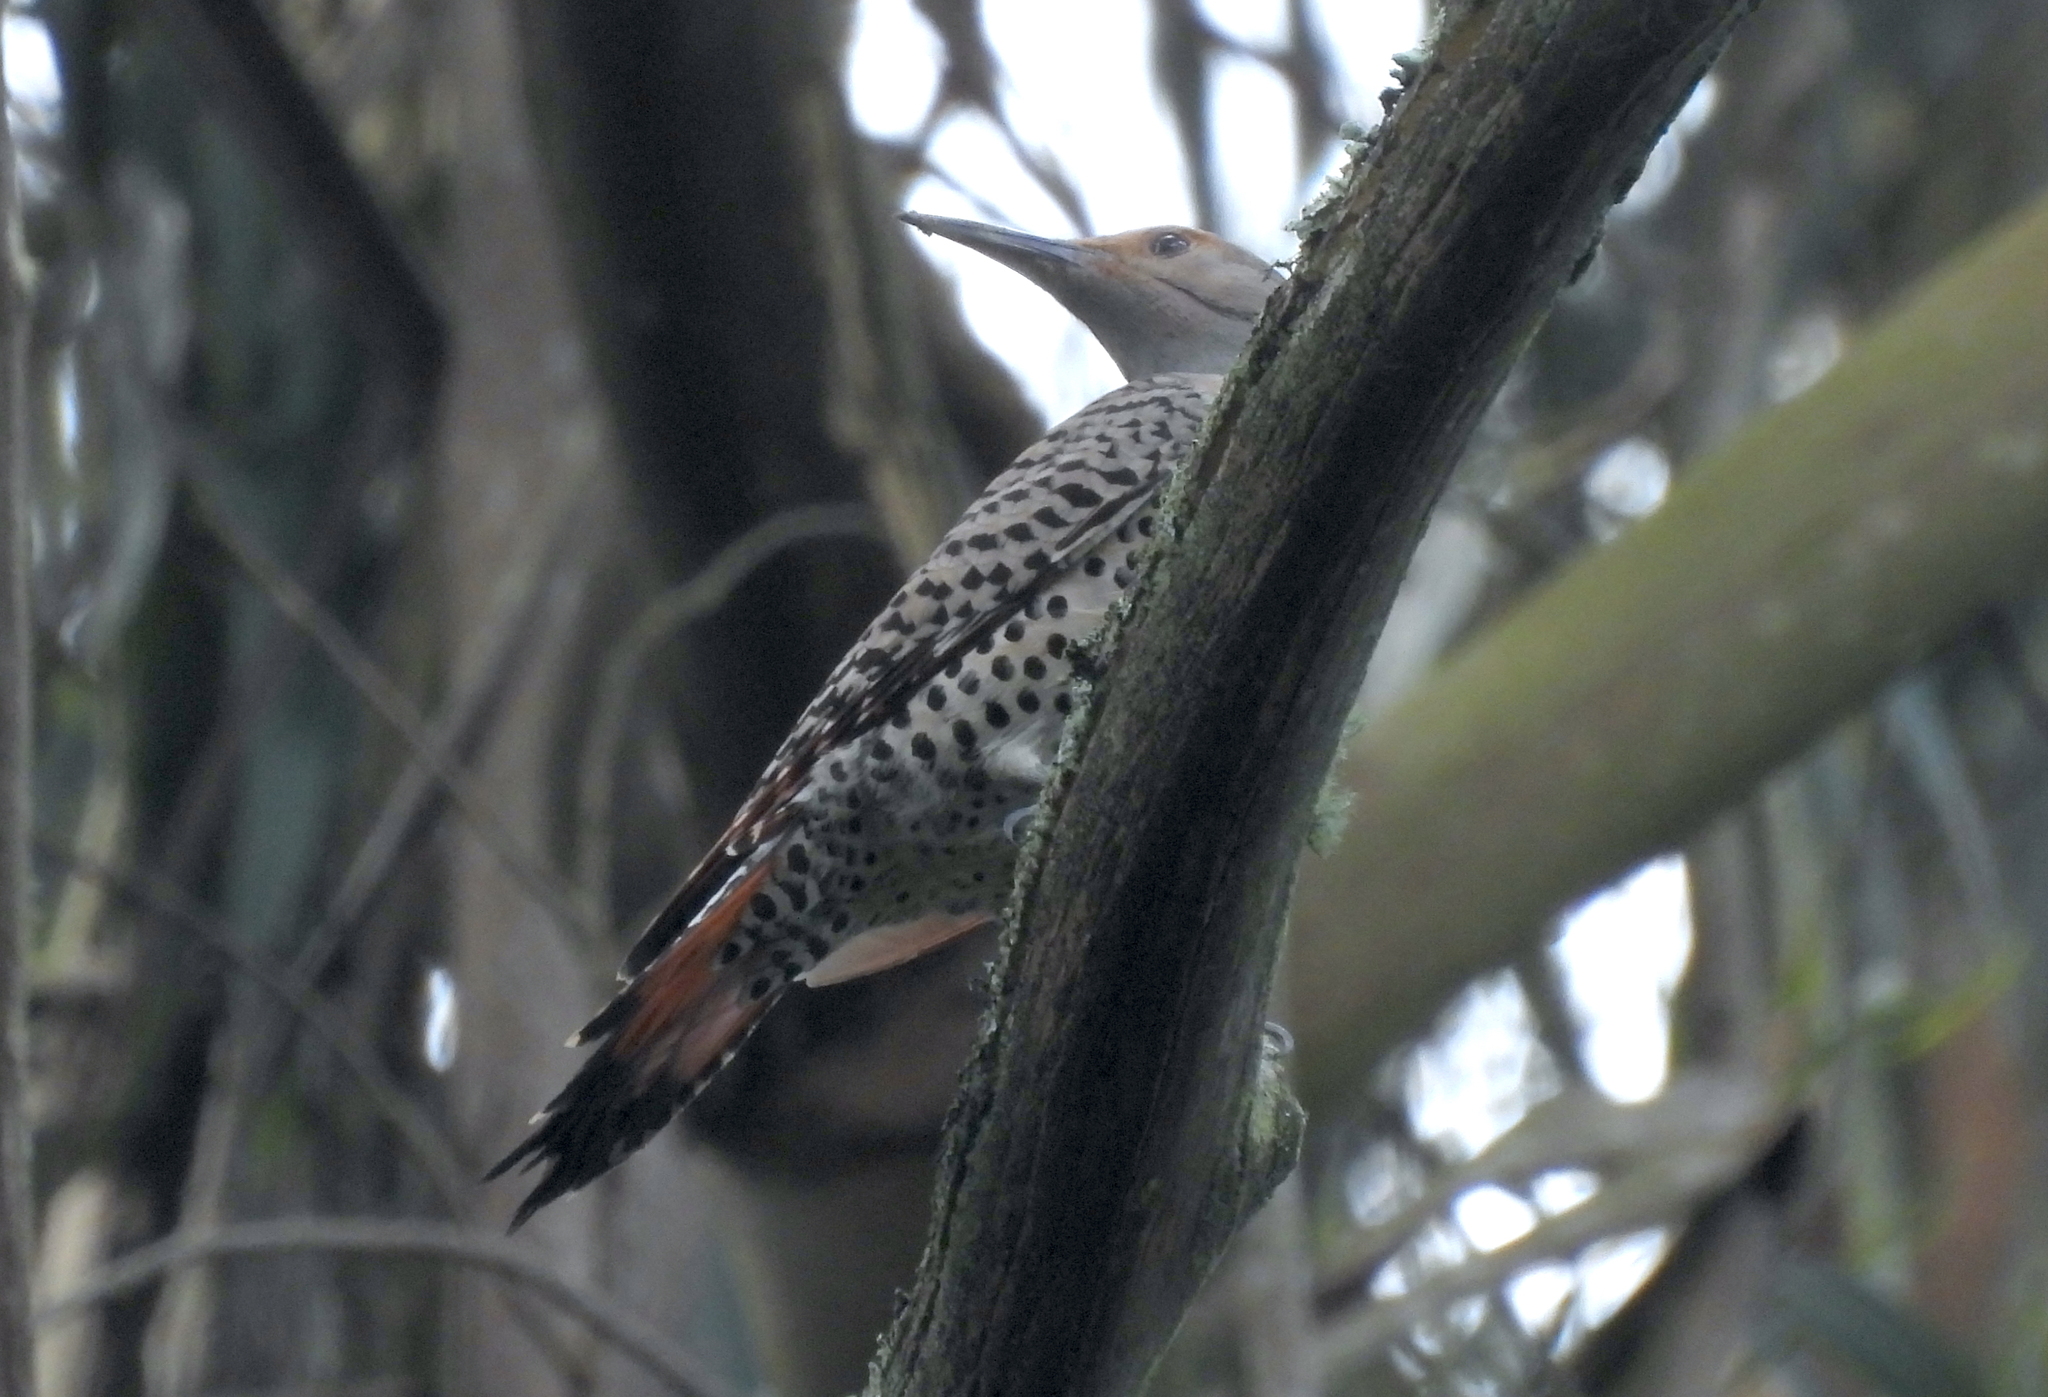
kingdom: Animalia
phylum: Chordata
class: Aves
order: Piciformes
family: Picidae
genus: Colaptes
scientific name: Colaptes auratus
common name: Northern flicker
